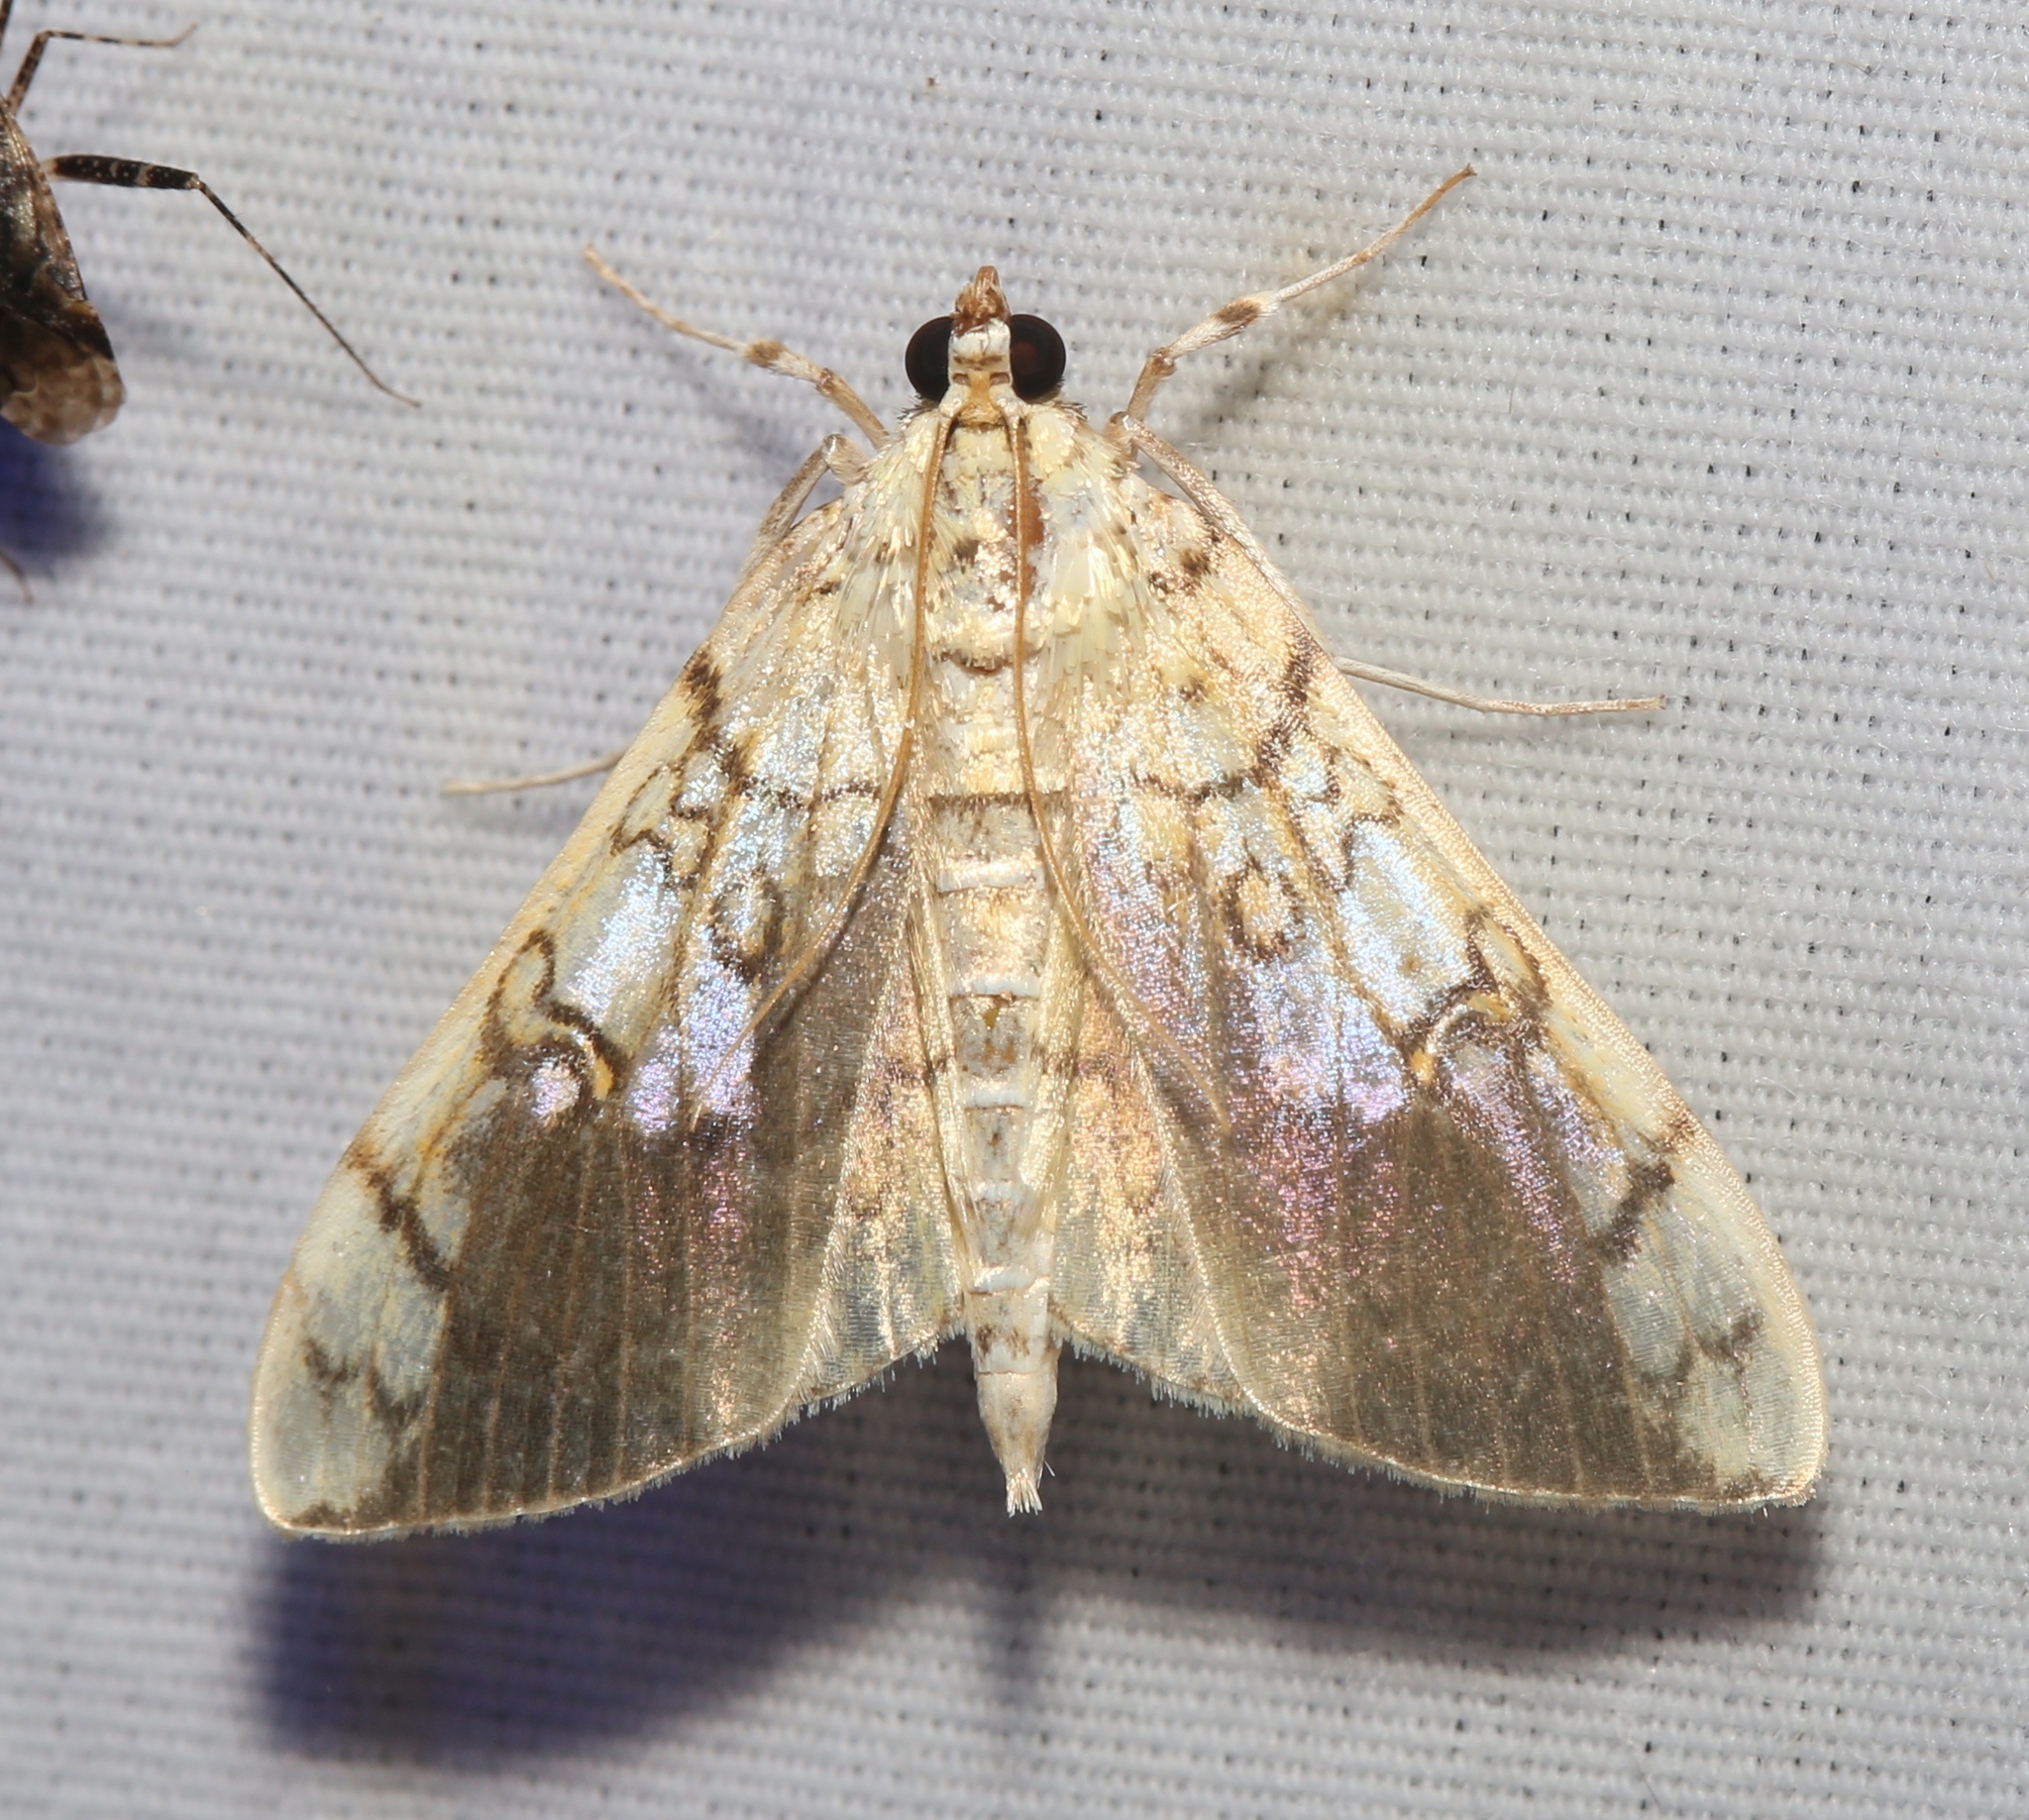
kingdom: Animalia
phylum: Arthropoda
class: Insecta
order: Lepidoptera
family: Crambidae
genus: Pantographa
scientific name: Pantographa limata
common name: Basswood leafroller moth
